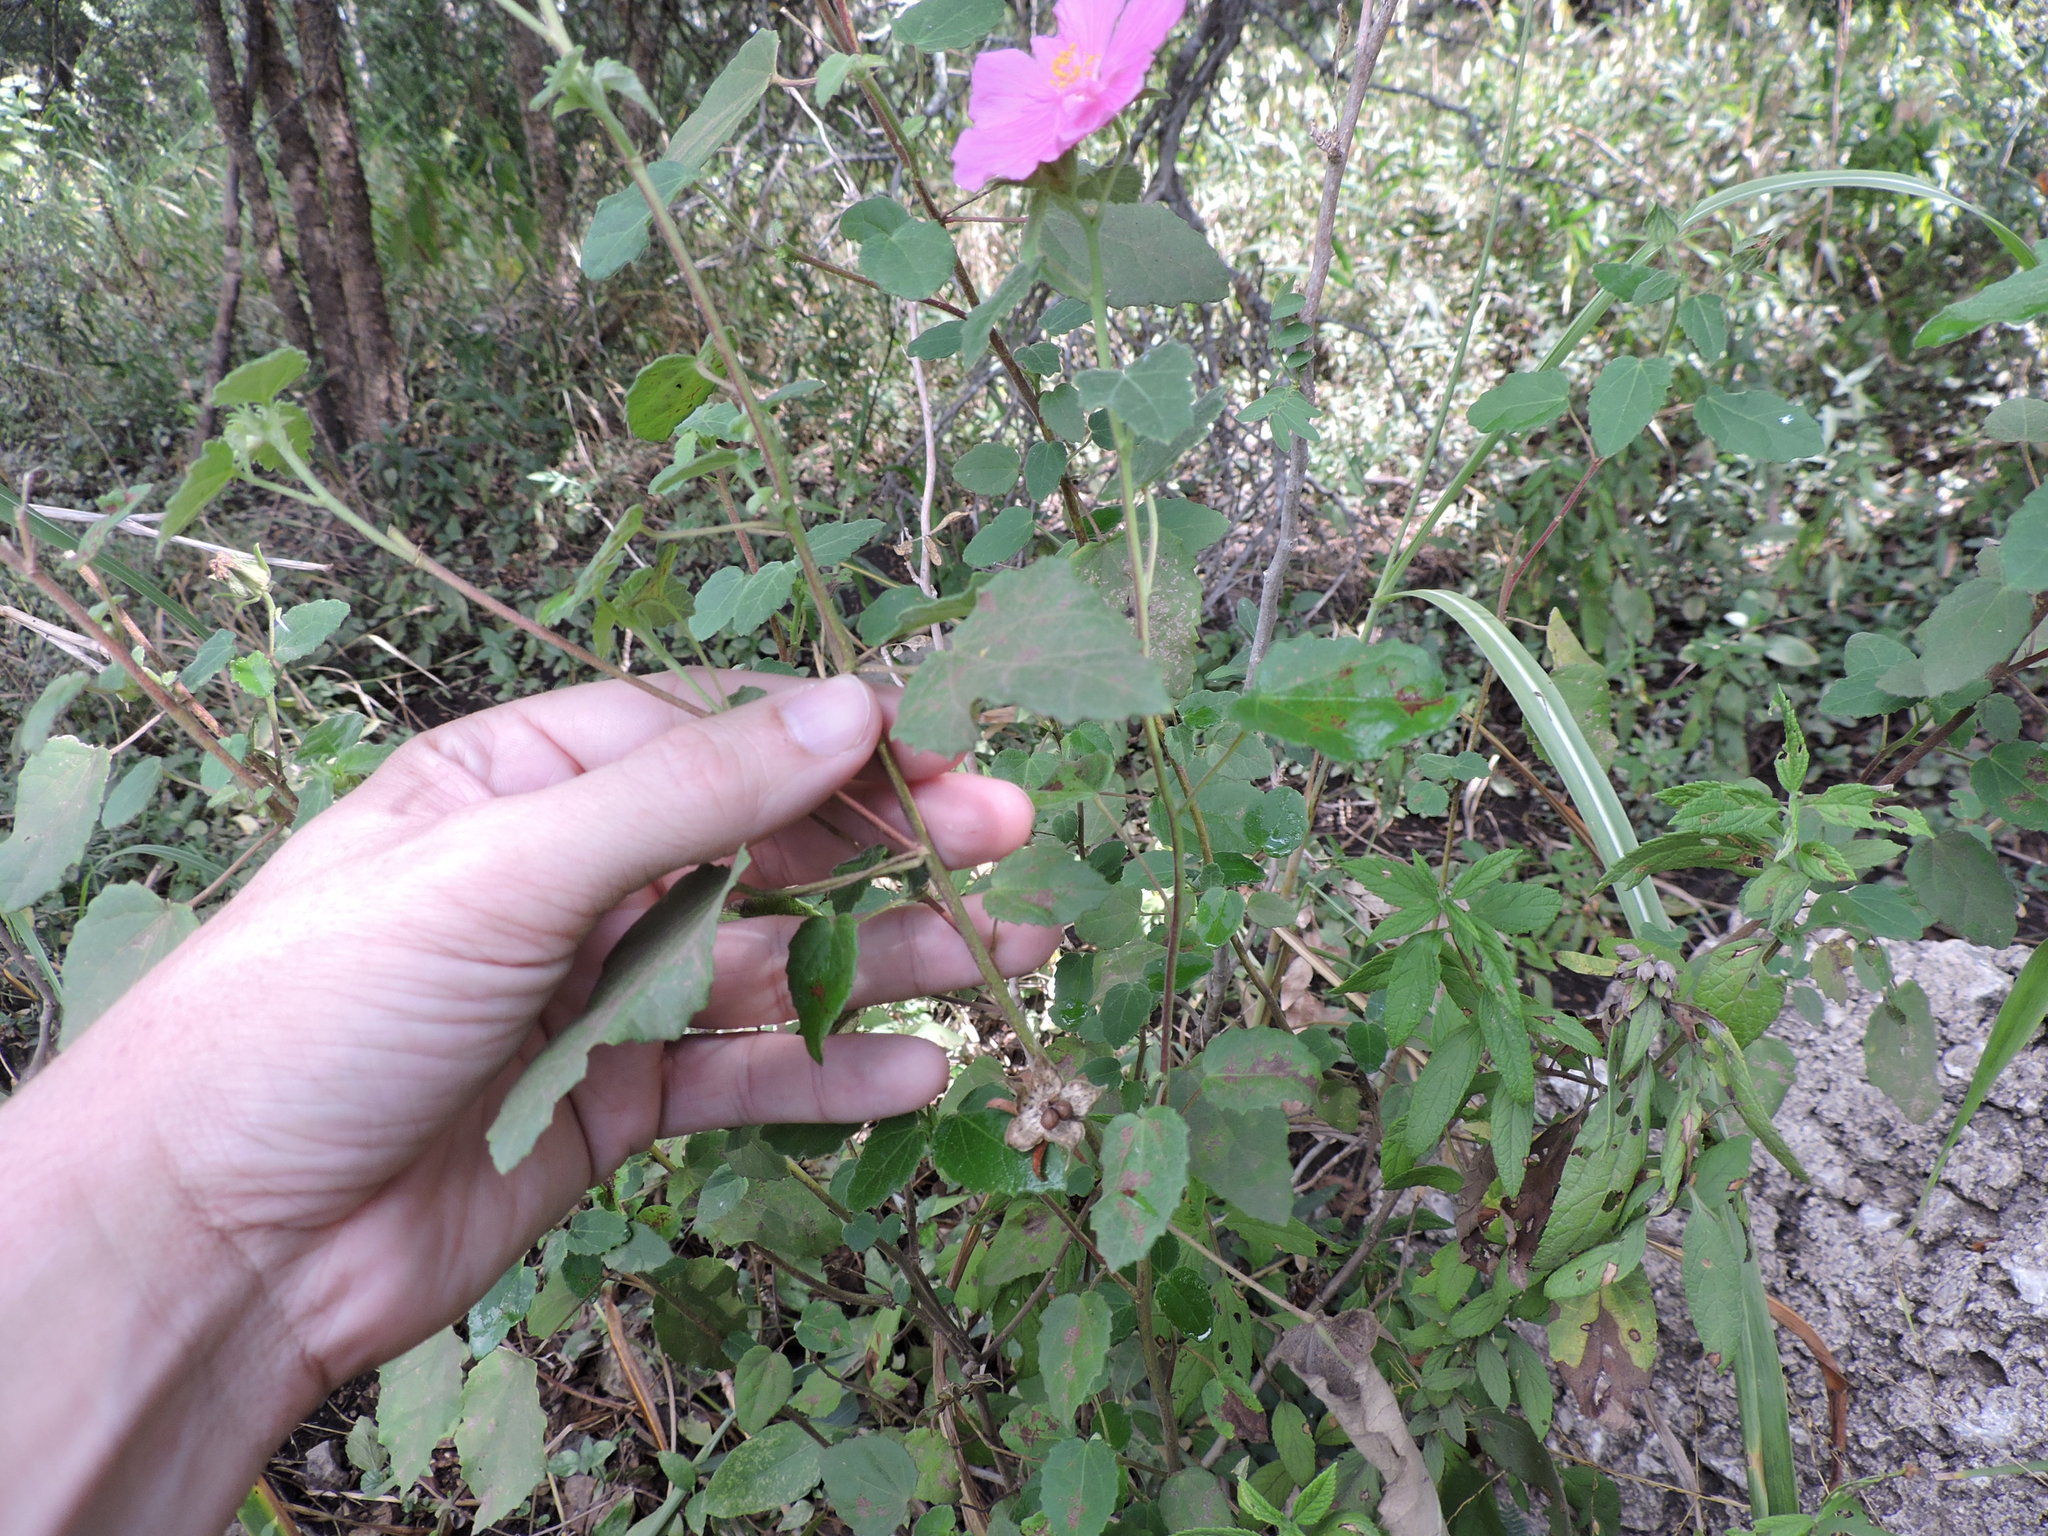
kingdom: Plantae
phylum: Tracheophyta
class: Magnoliopsida
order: Malvales
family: Malvaceae
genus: Pavonia
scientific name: Pavonia lasiopetala
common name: Texas swamp-mallow
